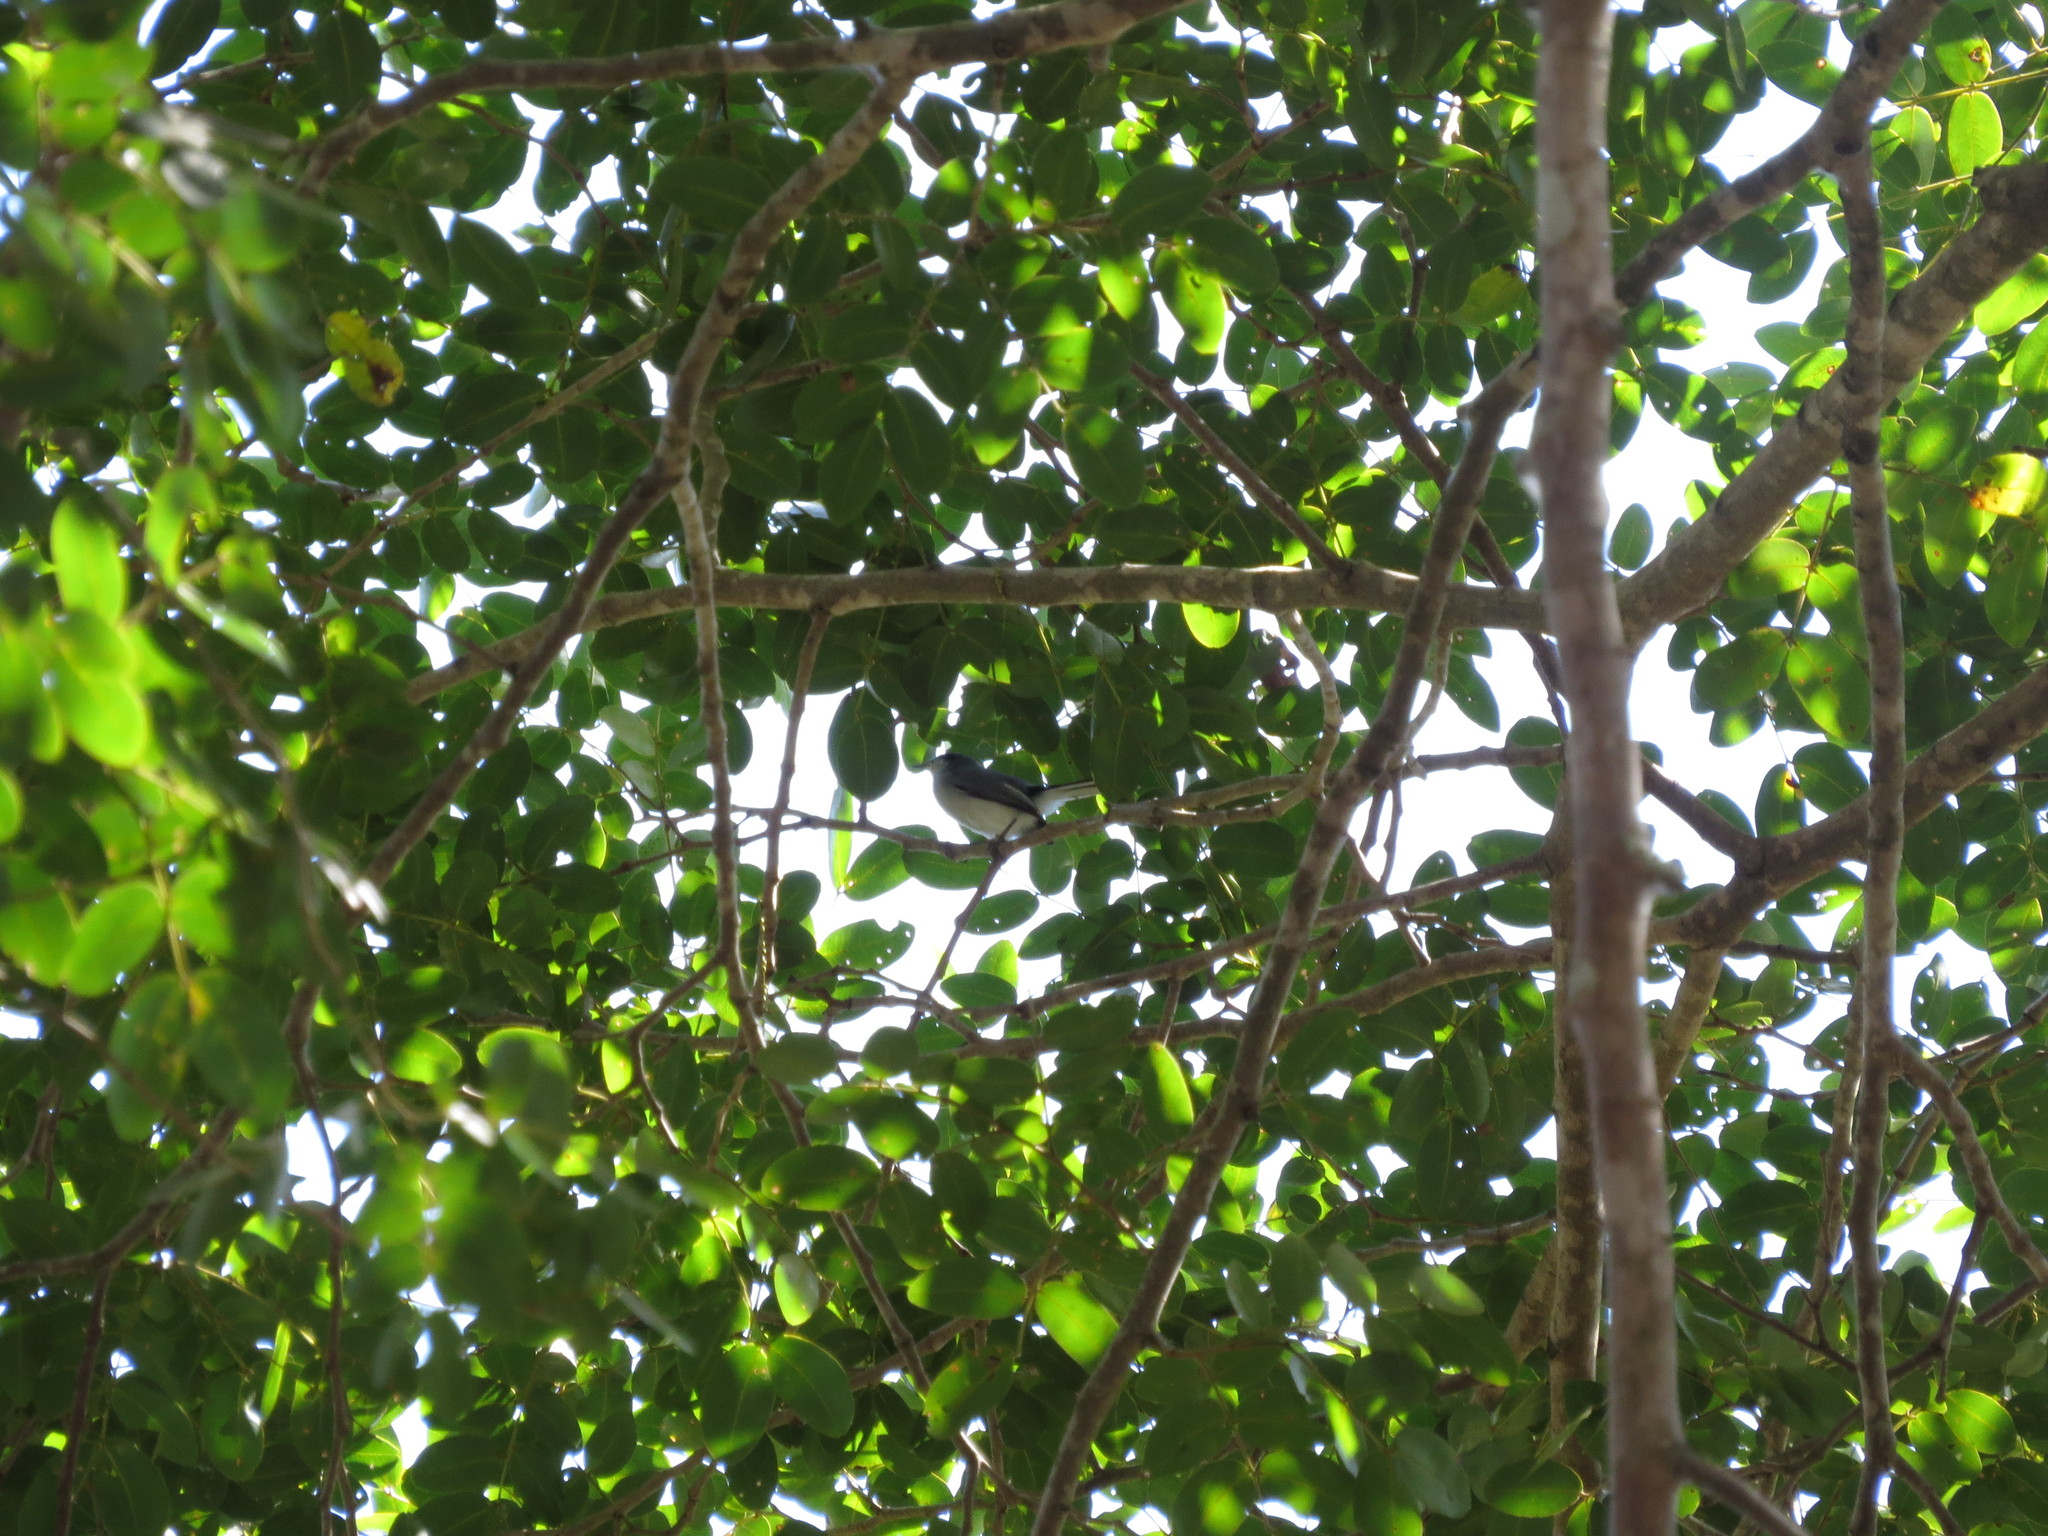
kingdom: Animalia
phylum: Chordata
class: Aves
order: Passeriformes
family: Polioptilidae
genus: Polioptila
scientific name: Polioptila dumicola
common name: Masked gnatcatcher
